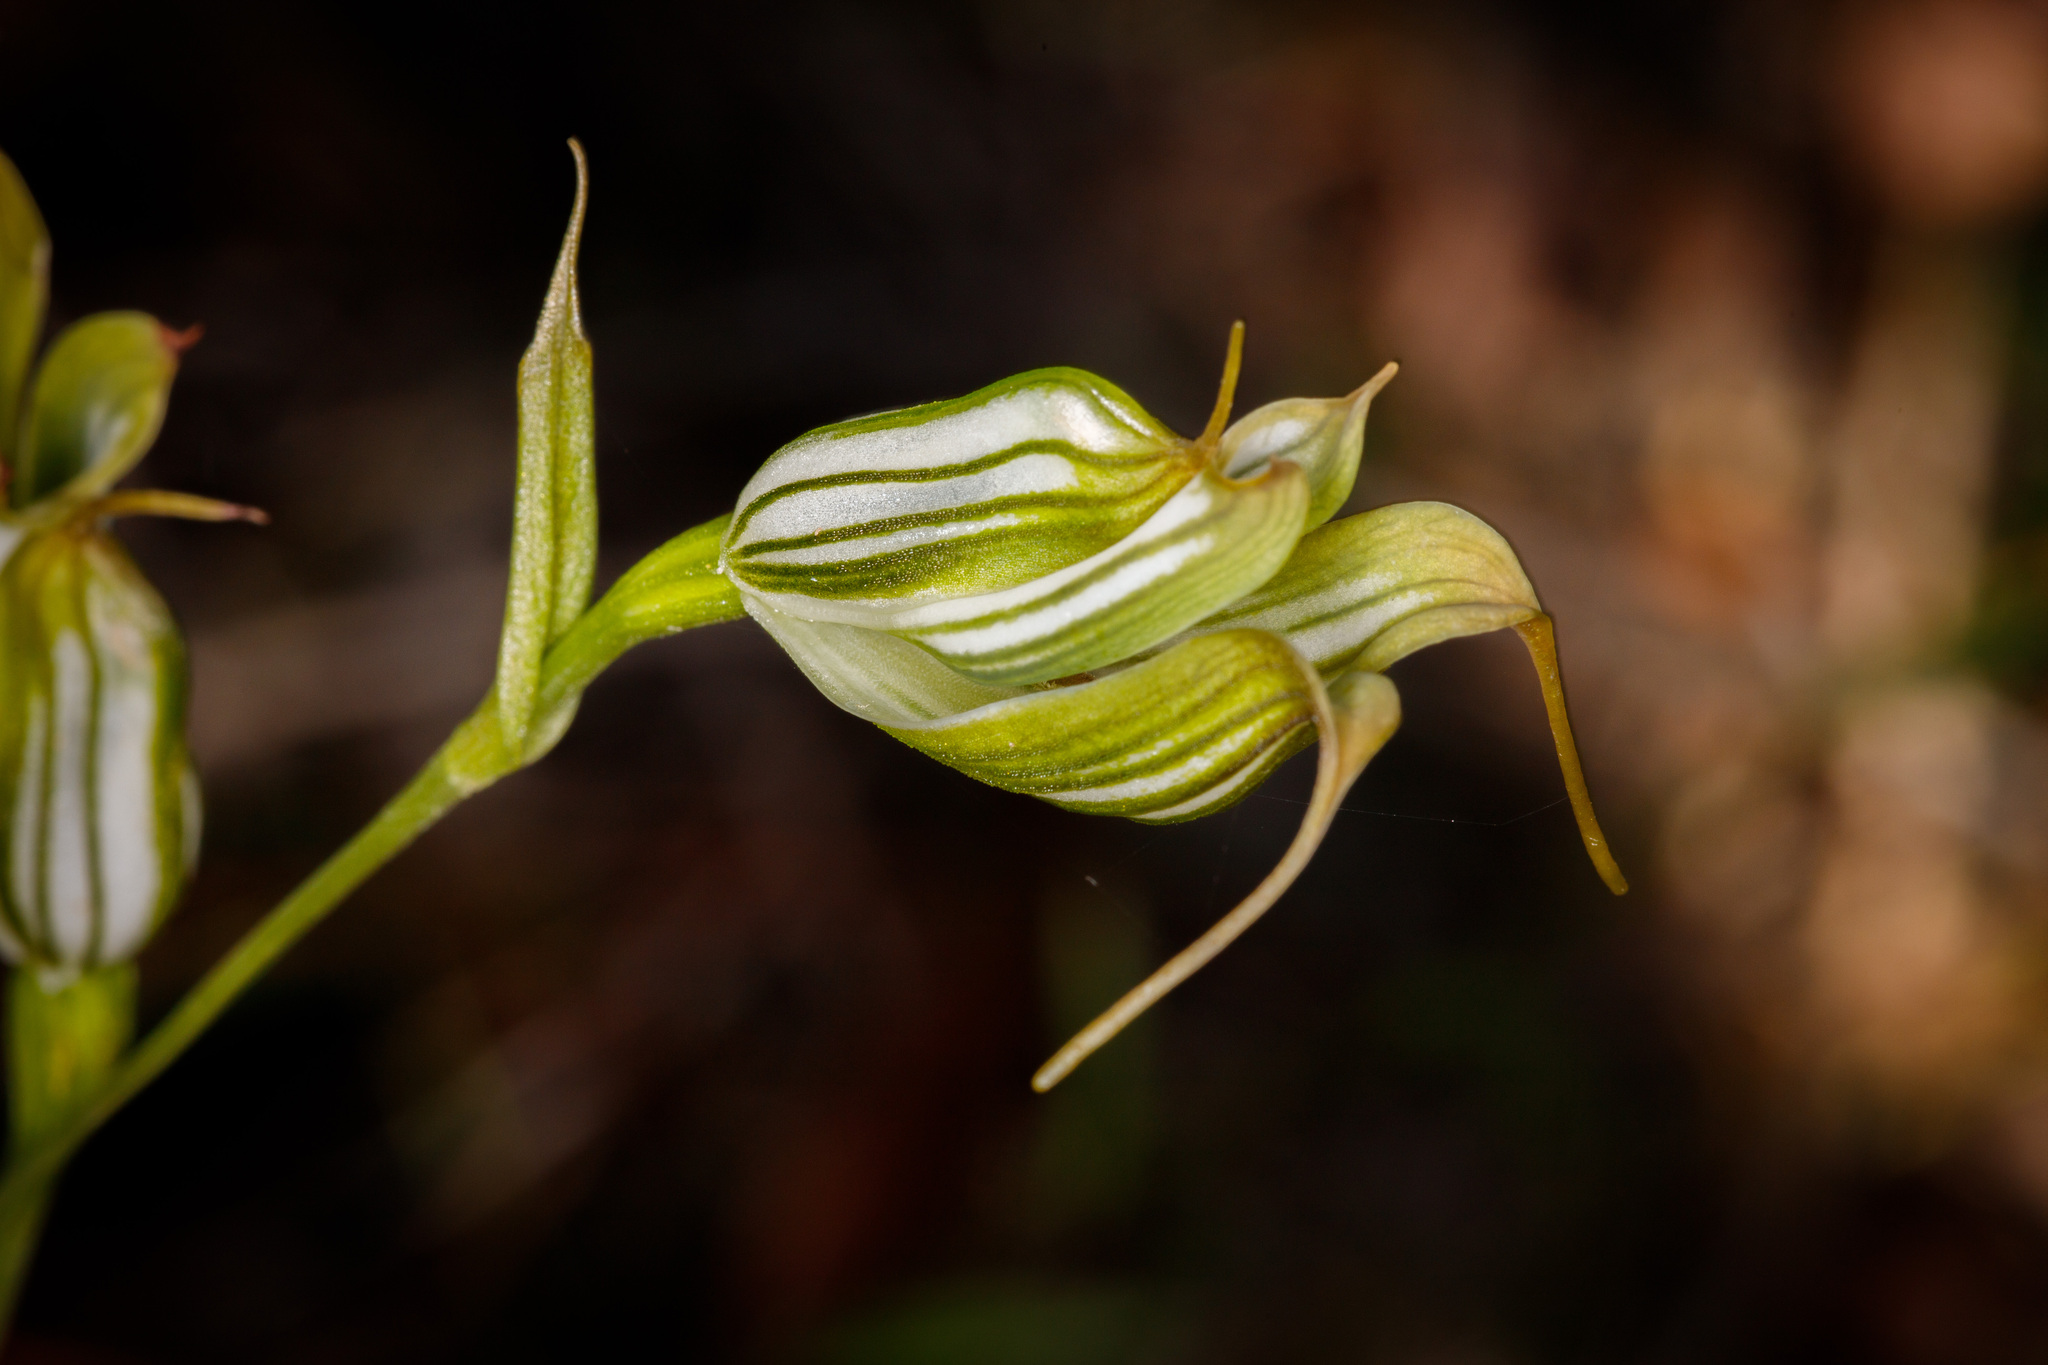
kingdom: Plantae
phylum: Tracheophyta
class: Liliopsida
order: Asparagales
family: Orchidaceae
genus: Pterostylis
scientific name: Pterostylis recurva
